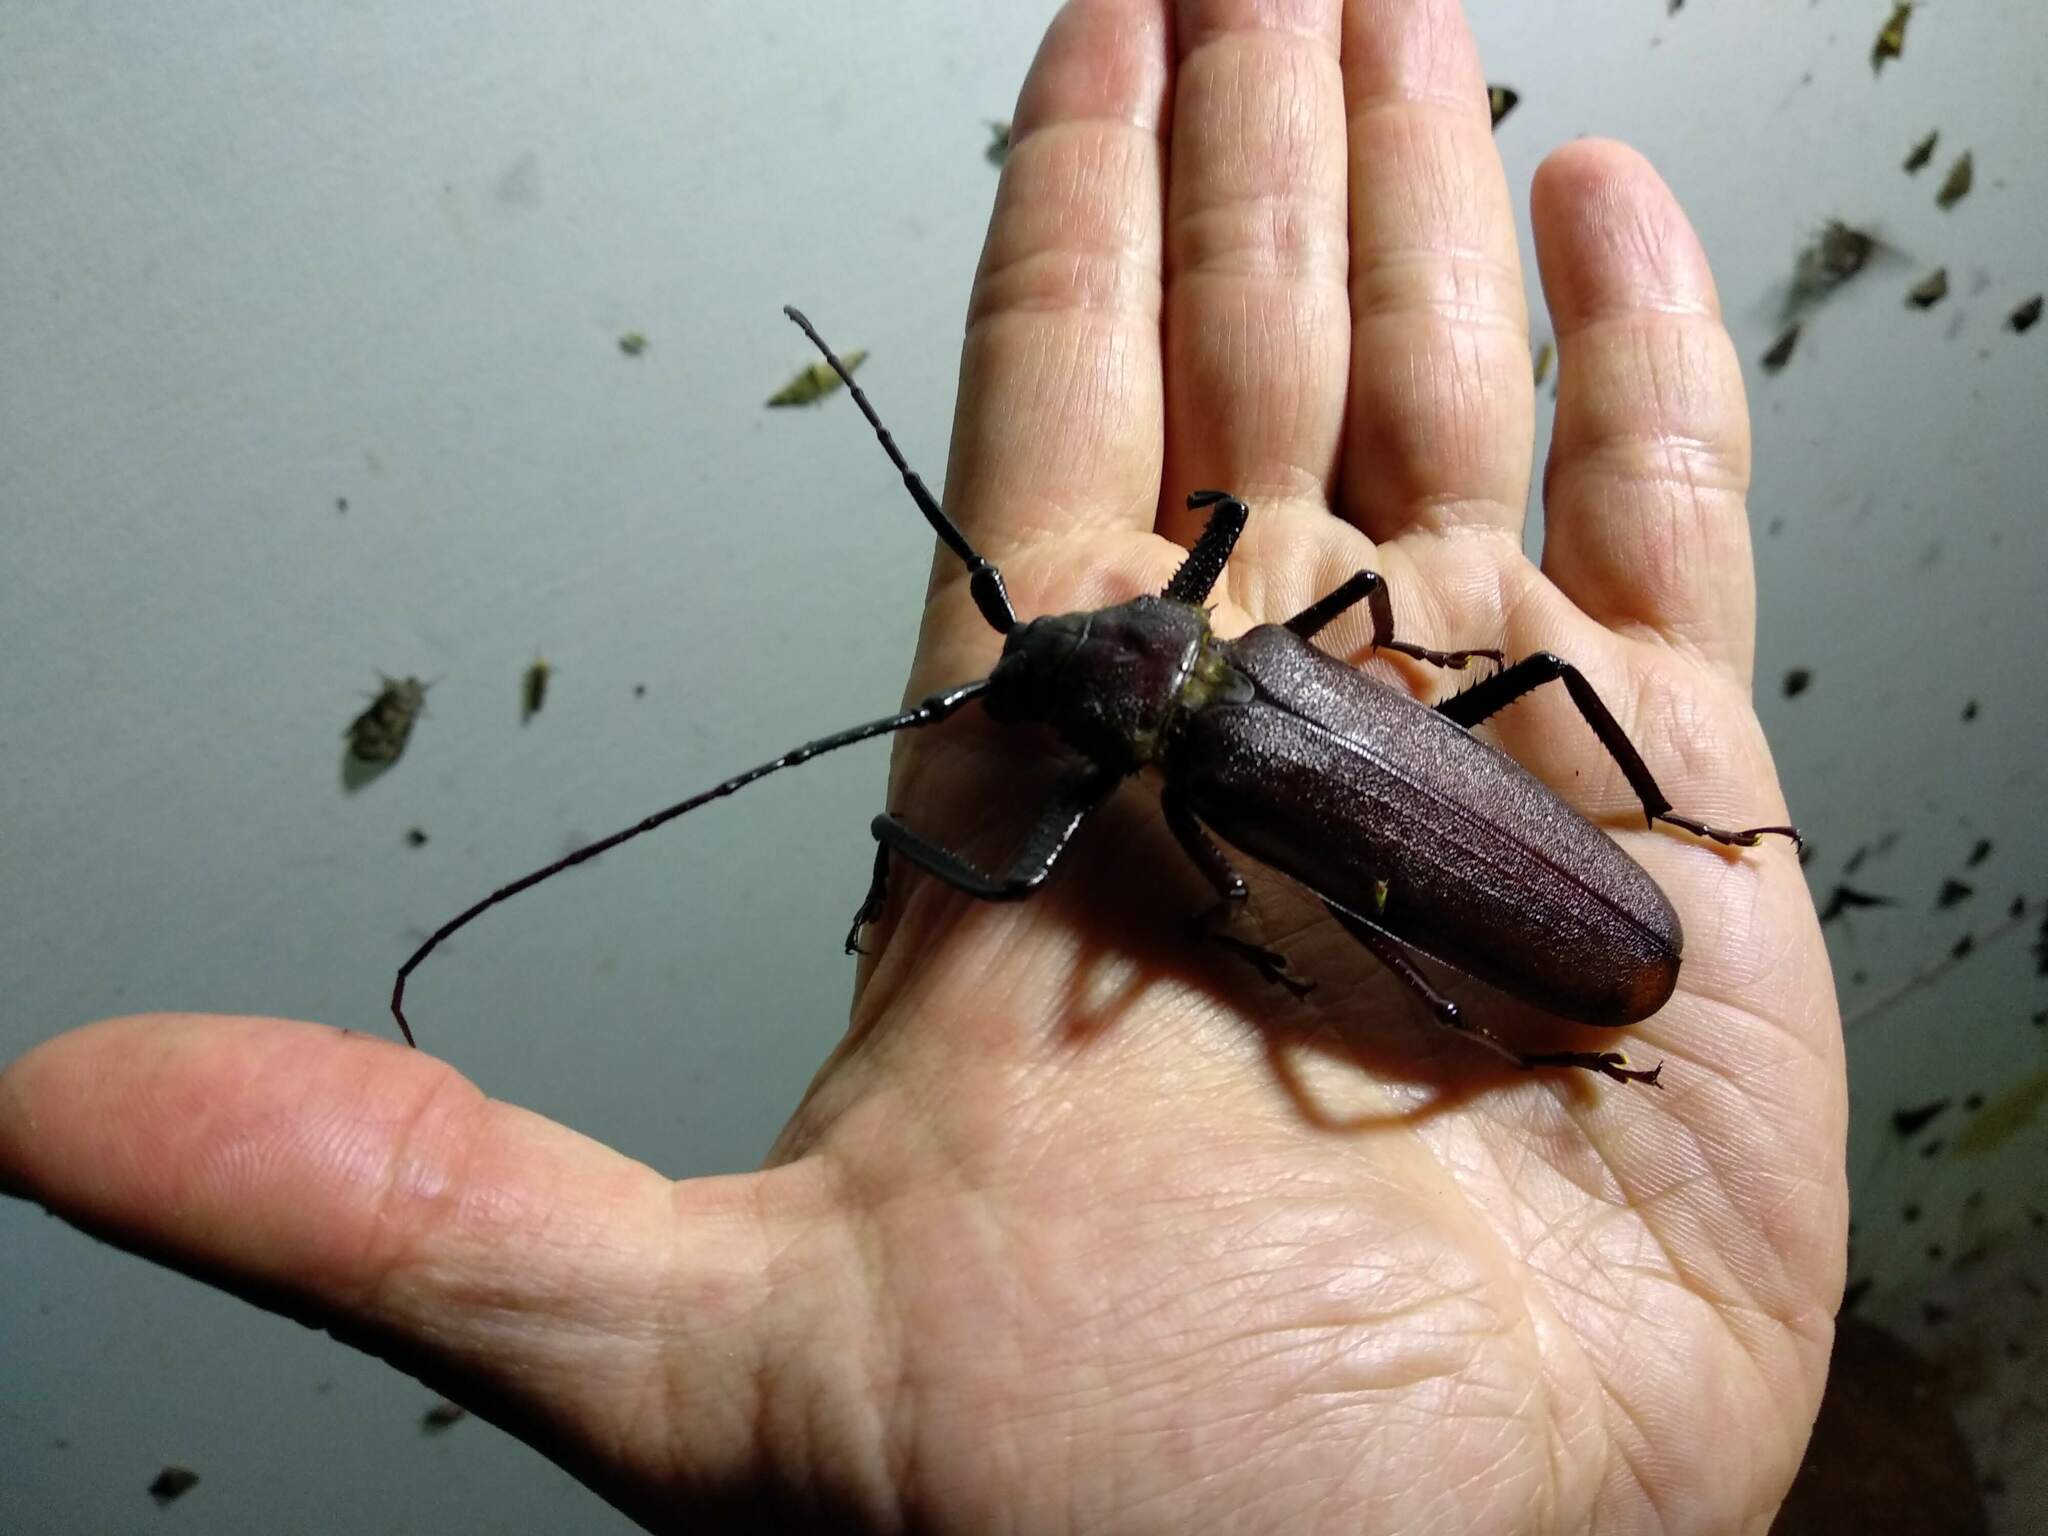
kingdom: Animalia
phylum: Arthropoda
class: Insecta
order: Coleoptera
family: Cerambycidae
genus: Macrotoma
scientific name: Macrotoma natala
